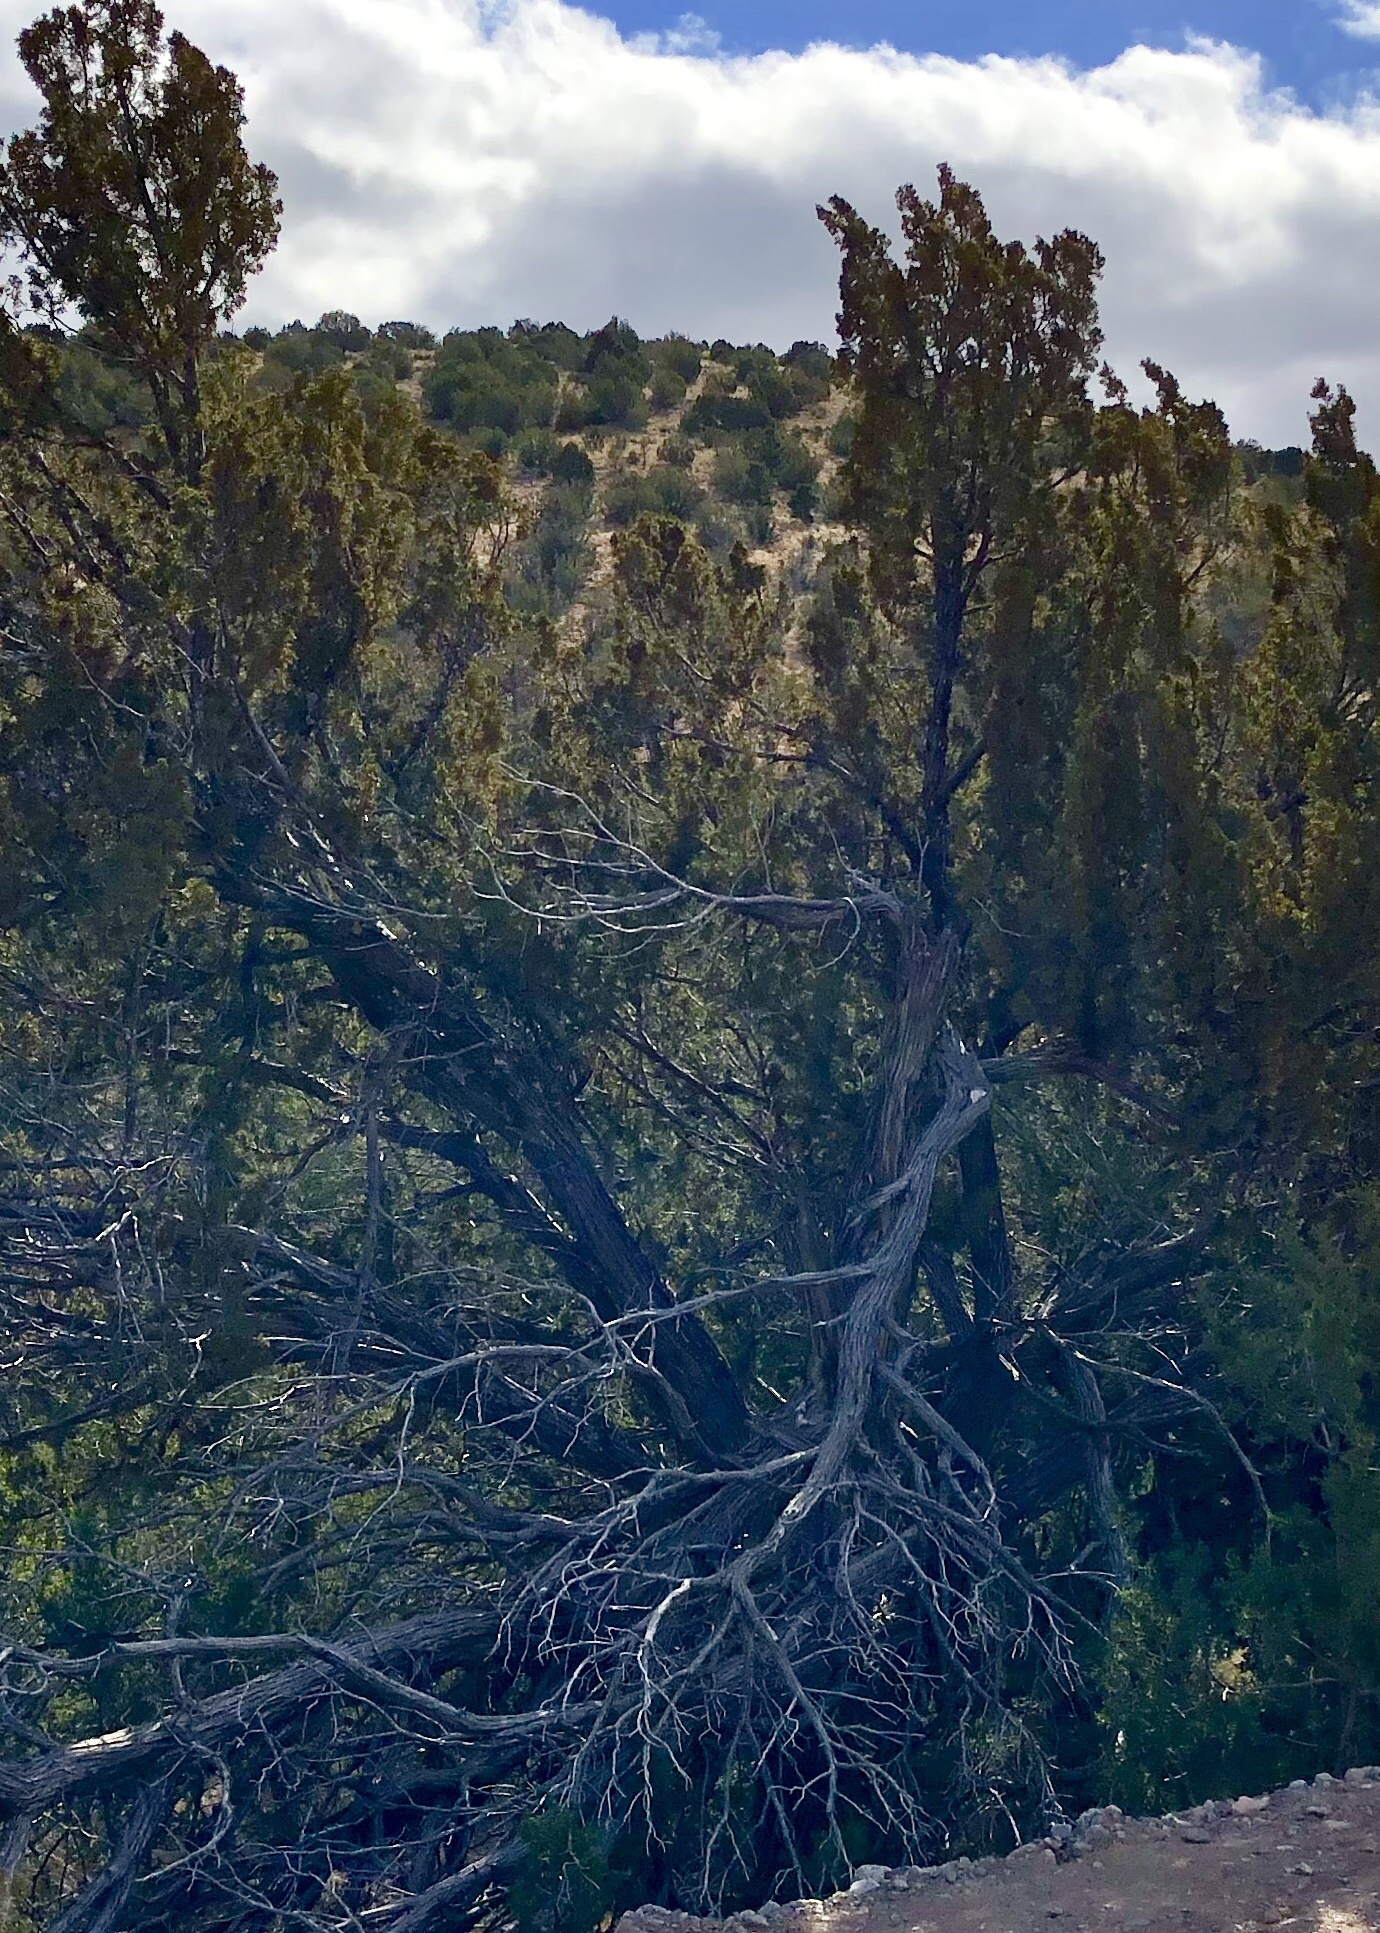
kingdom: Plantae
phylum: Tracheophyta
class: Pinopsida
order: Pinales
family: Cupressaceae
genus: Juniperus
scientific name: Juniperus monosperma
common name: One-seed juniper
